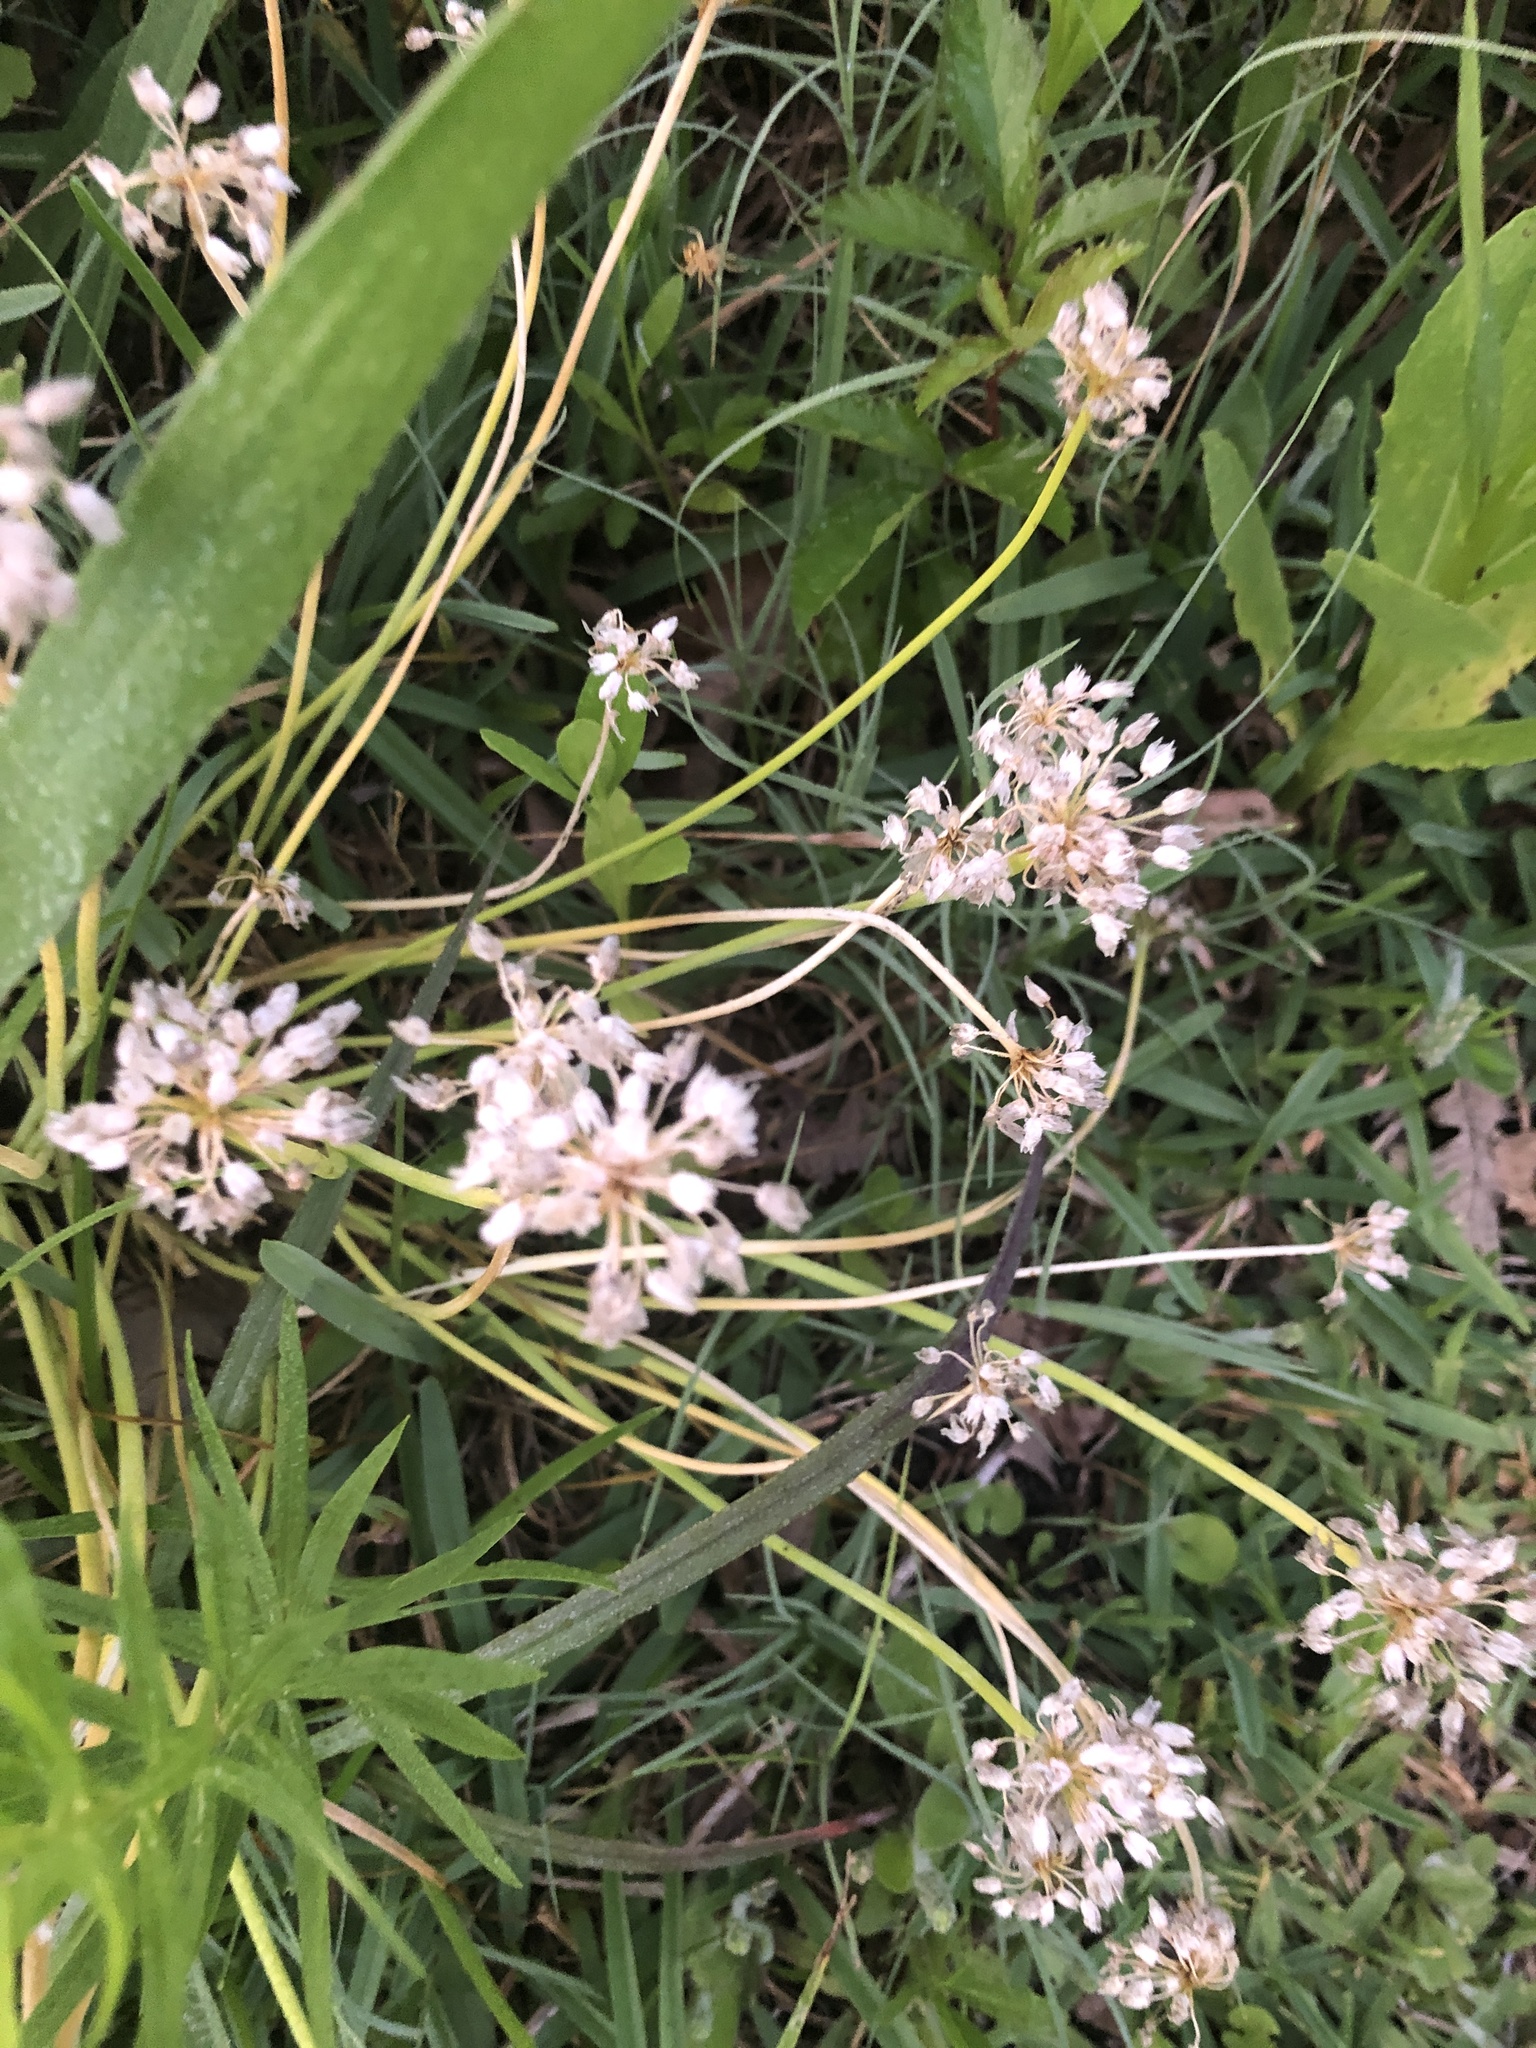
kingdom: Plantae
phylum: Tracheophyta
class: Liliopsida
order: Asparagales
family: Amaryllidaceae
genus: Allium
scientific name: Allium canadense
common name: Meadow garlic
